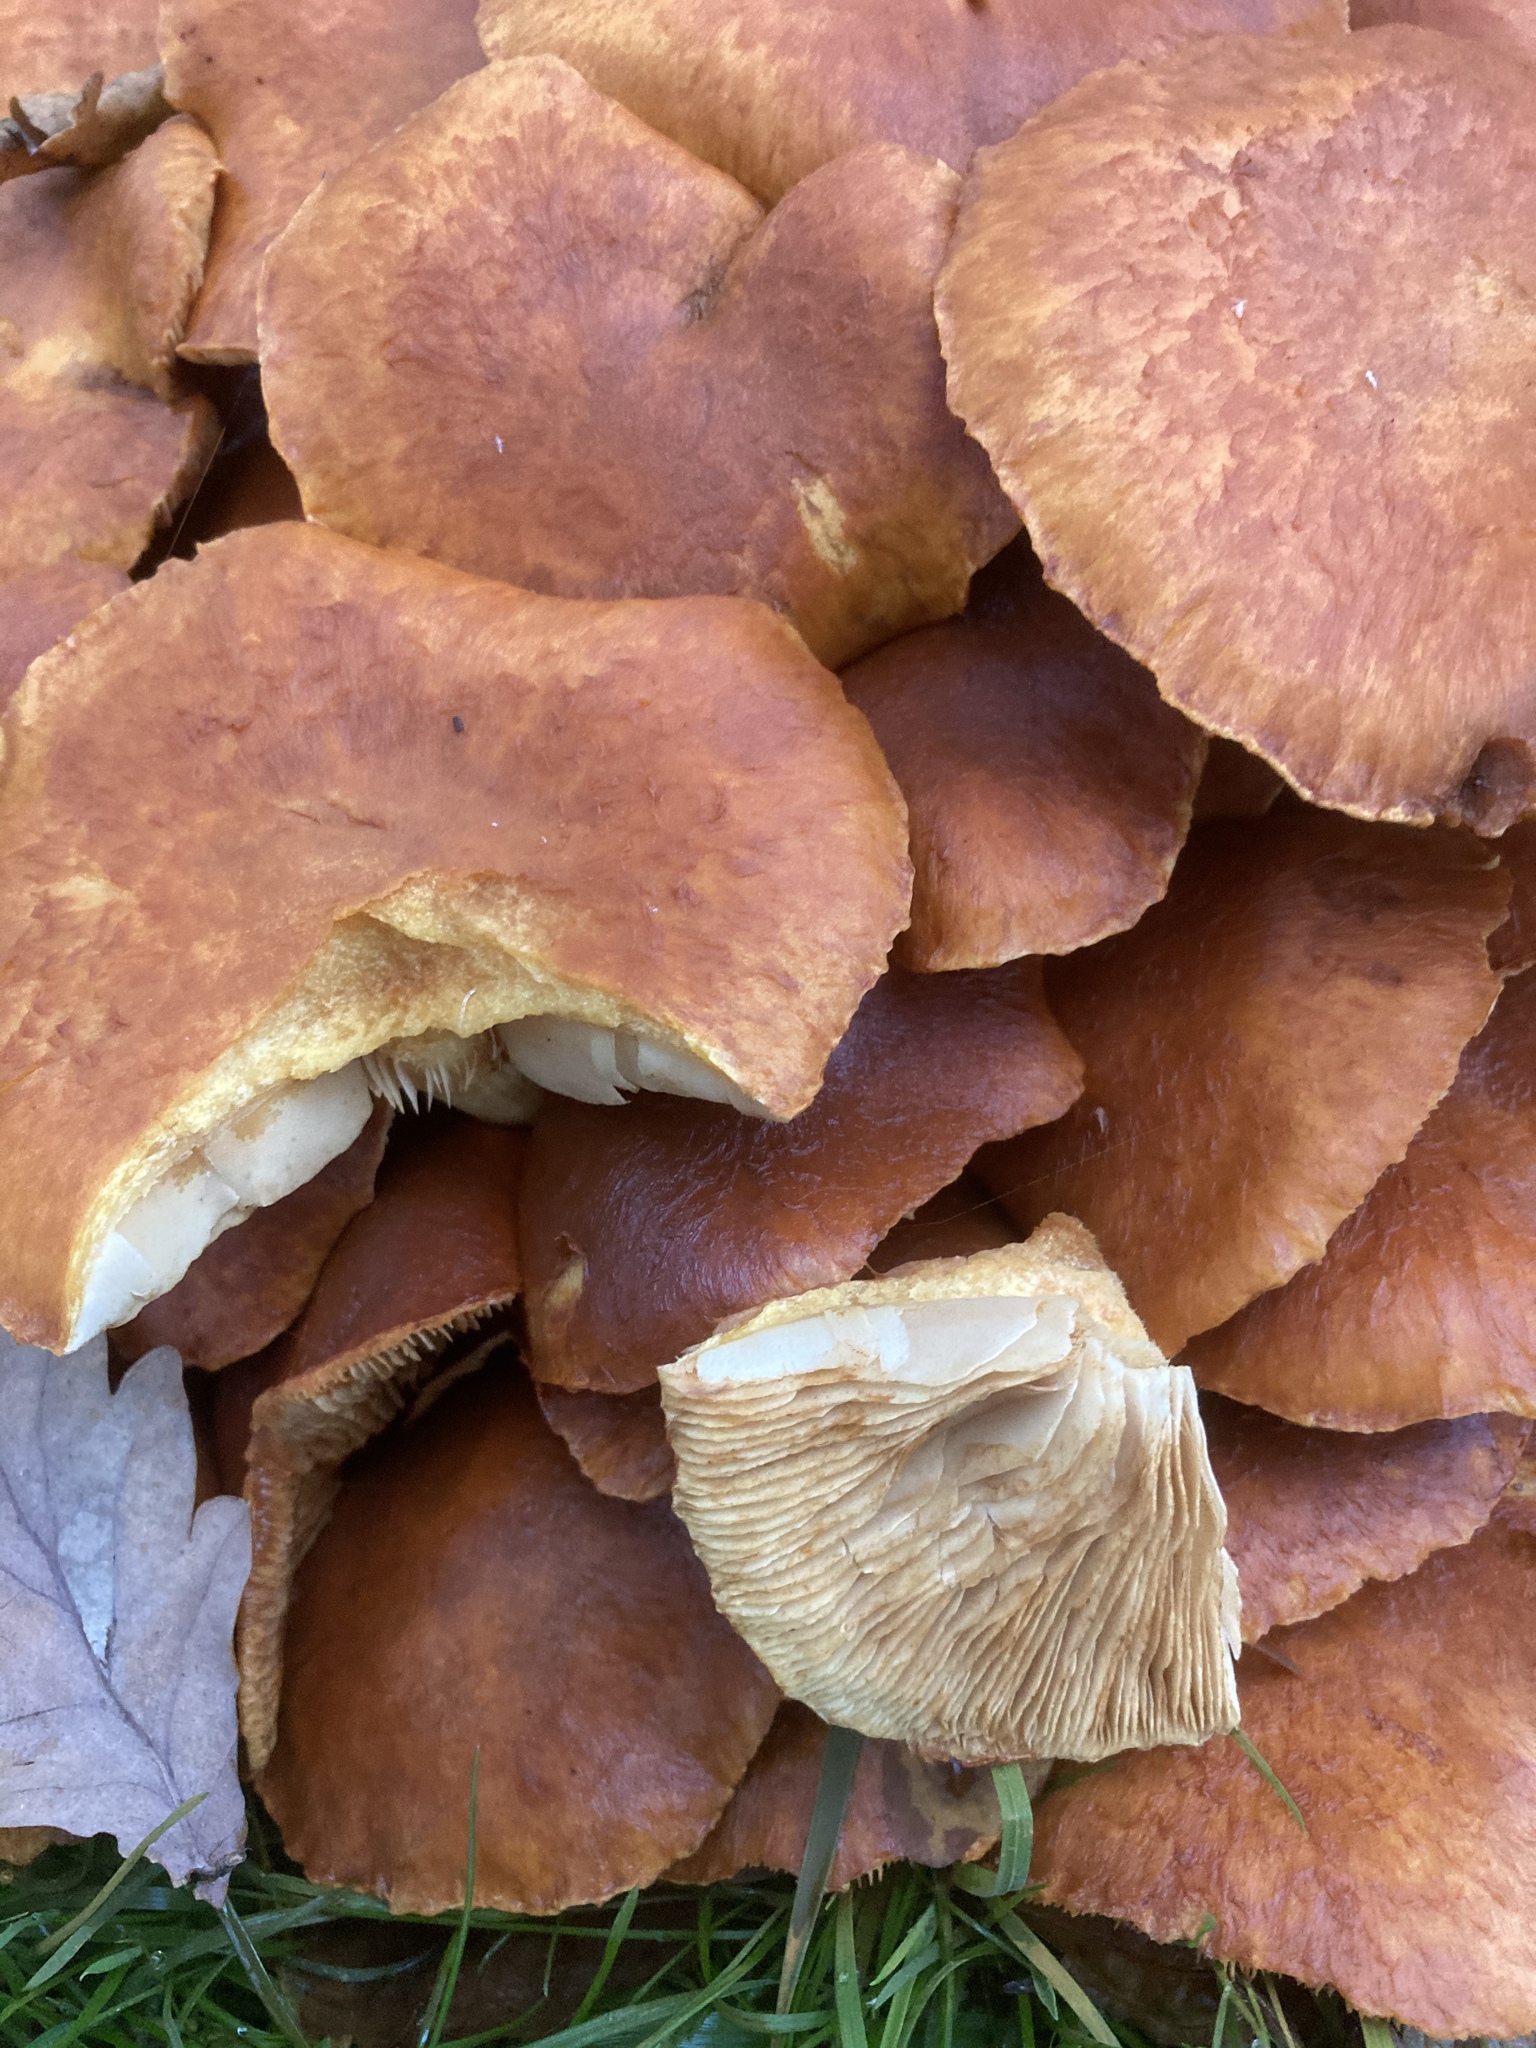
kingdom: Fungi
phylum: Basidiomycota
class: Agaricomycetes
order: Agaricales
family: Hymenogastraceae
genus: Gymnopilus
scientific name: Gymnopilus junonius
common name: Spectacular rustgill
